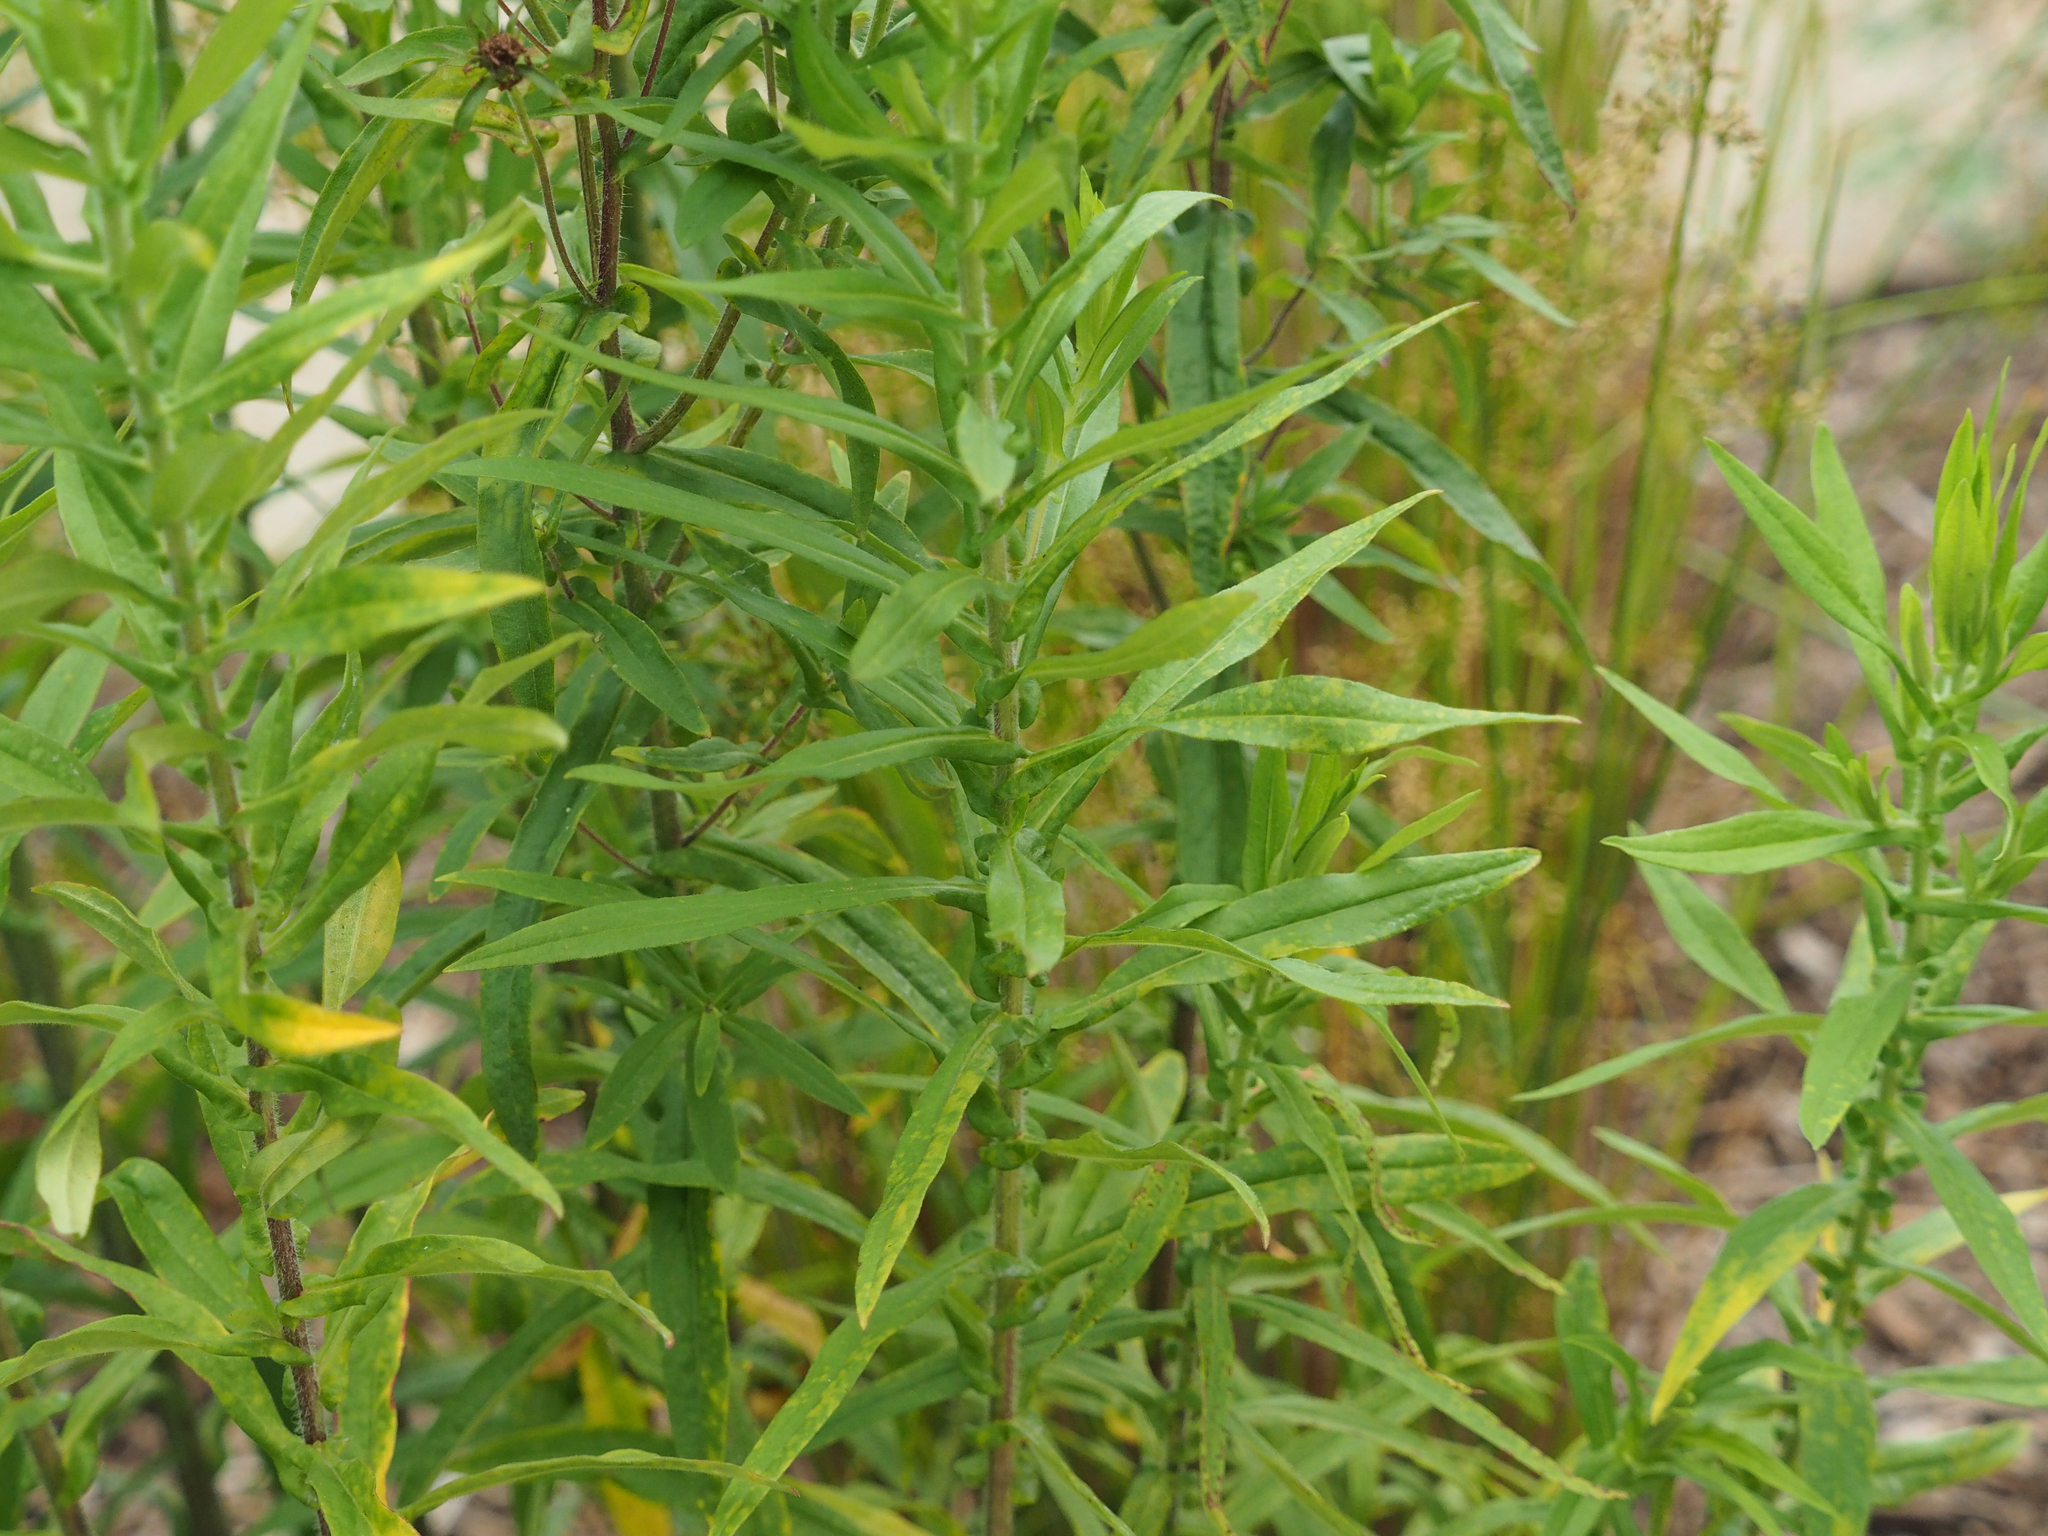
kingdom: Plantae
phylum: Tracheophyta
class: Magnoliopsida
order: Asterales
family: Asteraceae
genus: Symphyotrichum
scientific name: Symphyotrichum novae-angliae
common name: Michaelmas daisy
